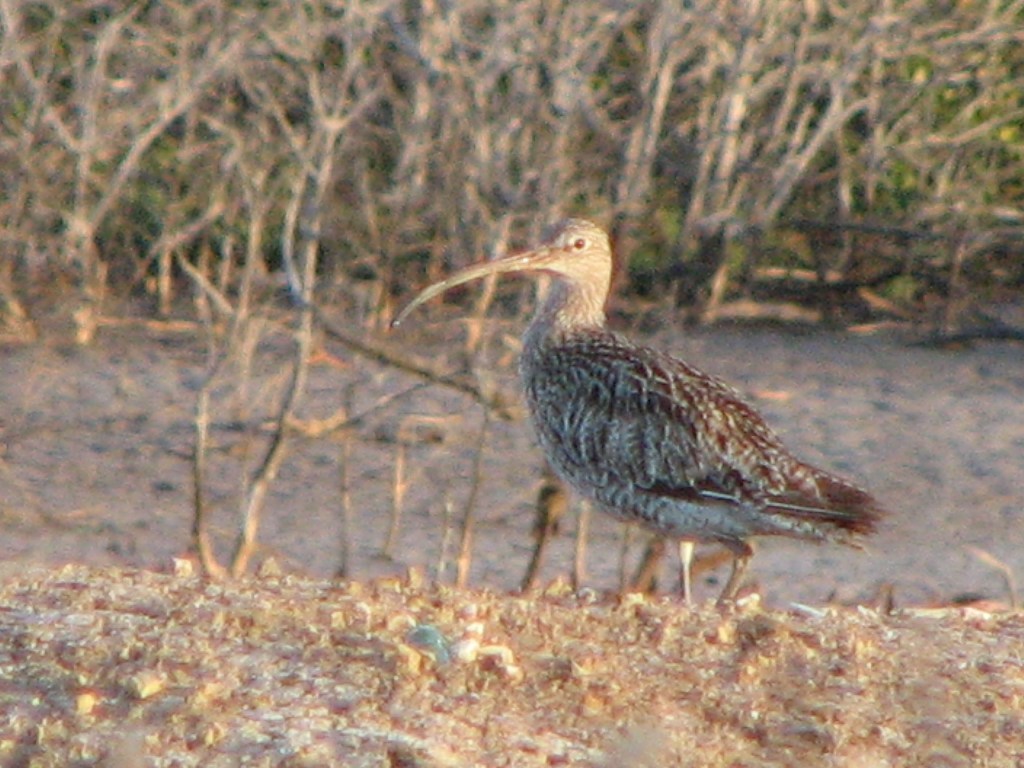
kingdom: Animalia
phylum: Chordata
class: Aves
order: Charadriiformes
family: Scolopacidae
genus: Numenius
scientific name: Numenius phaeopus
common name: Whimbrel
